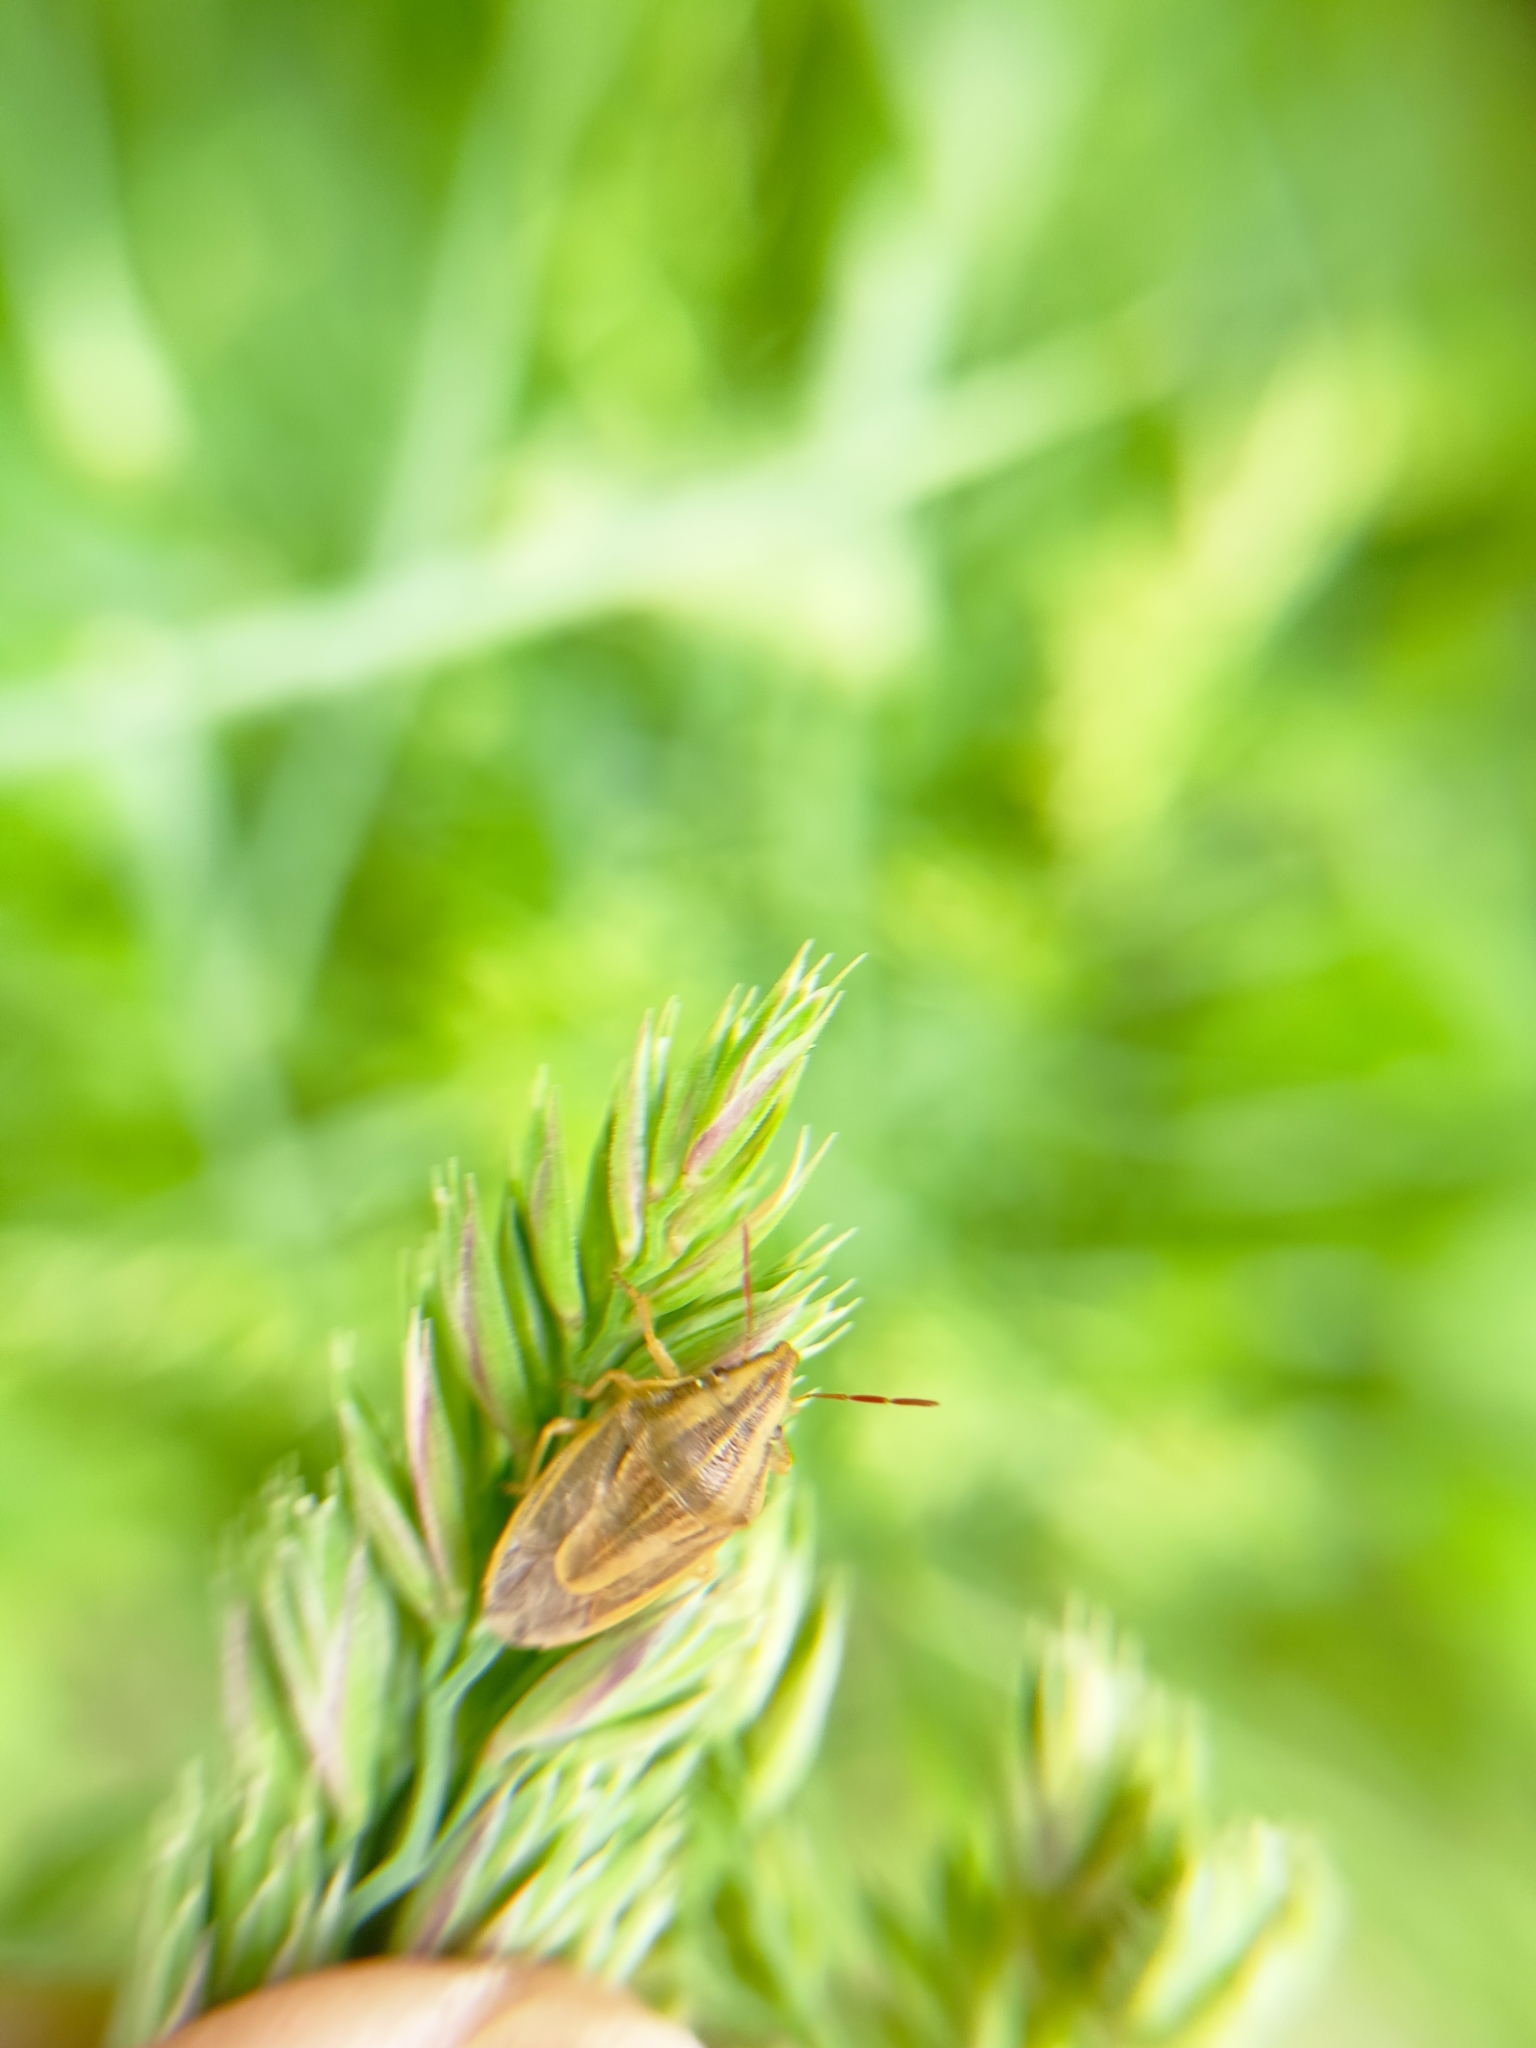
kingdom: Animalia
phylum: Arthropoda
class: Insecta
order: Hemiptera
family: Pentatomidae
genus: Aelia
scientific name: Aelia acuminata
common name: Bishop's mitre
